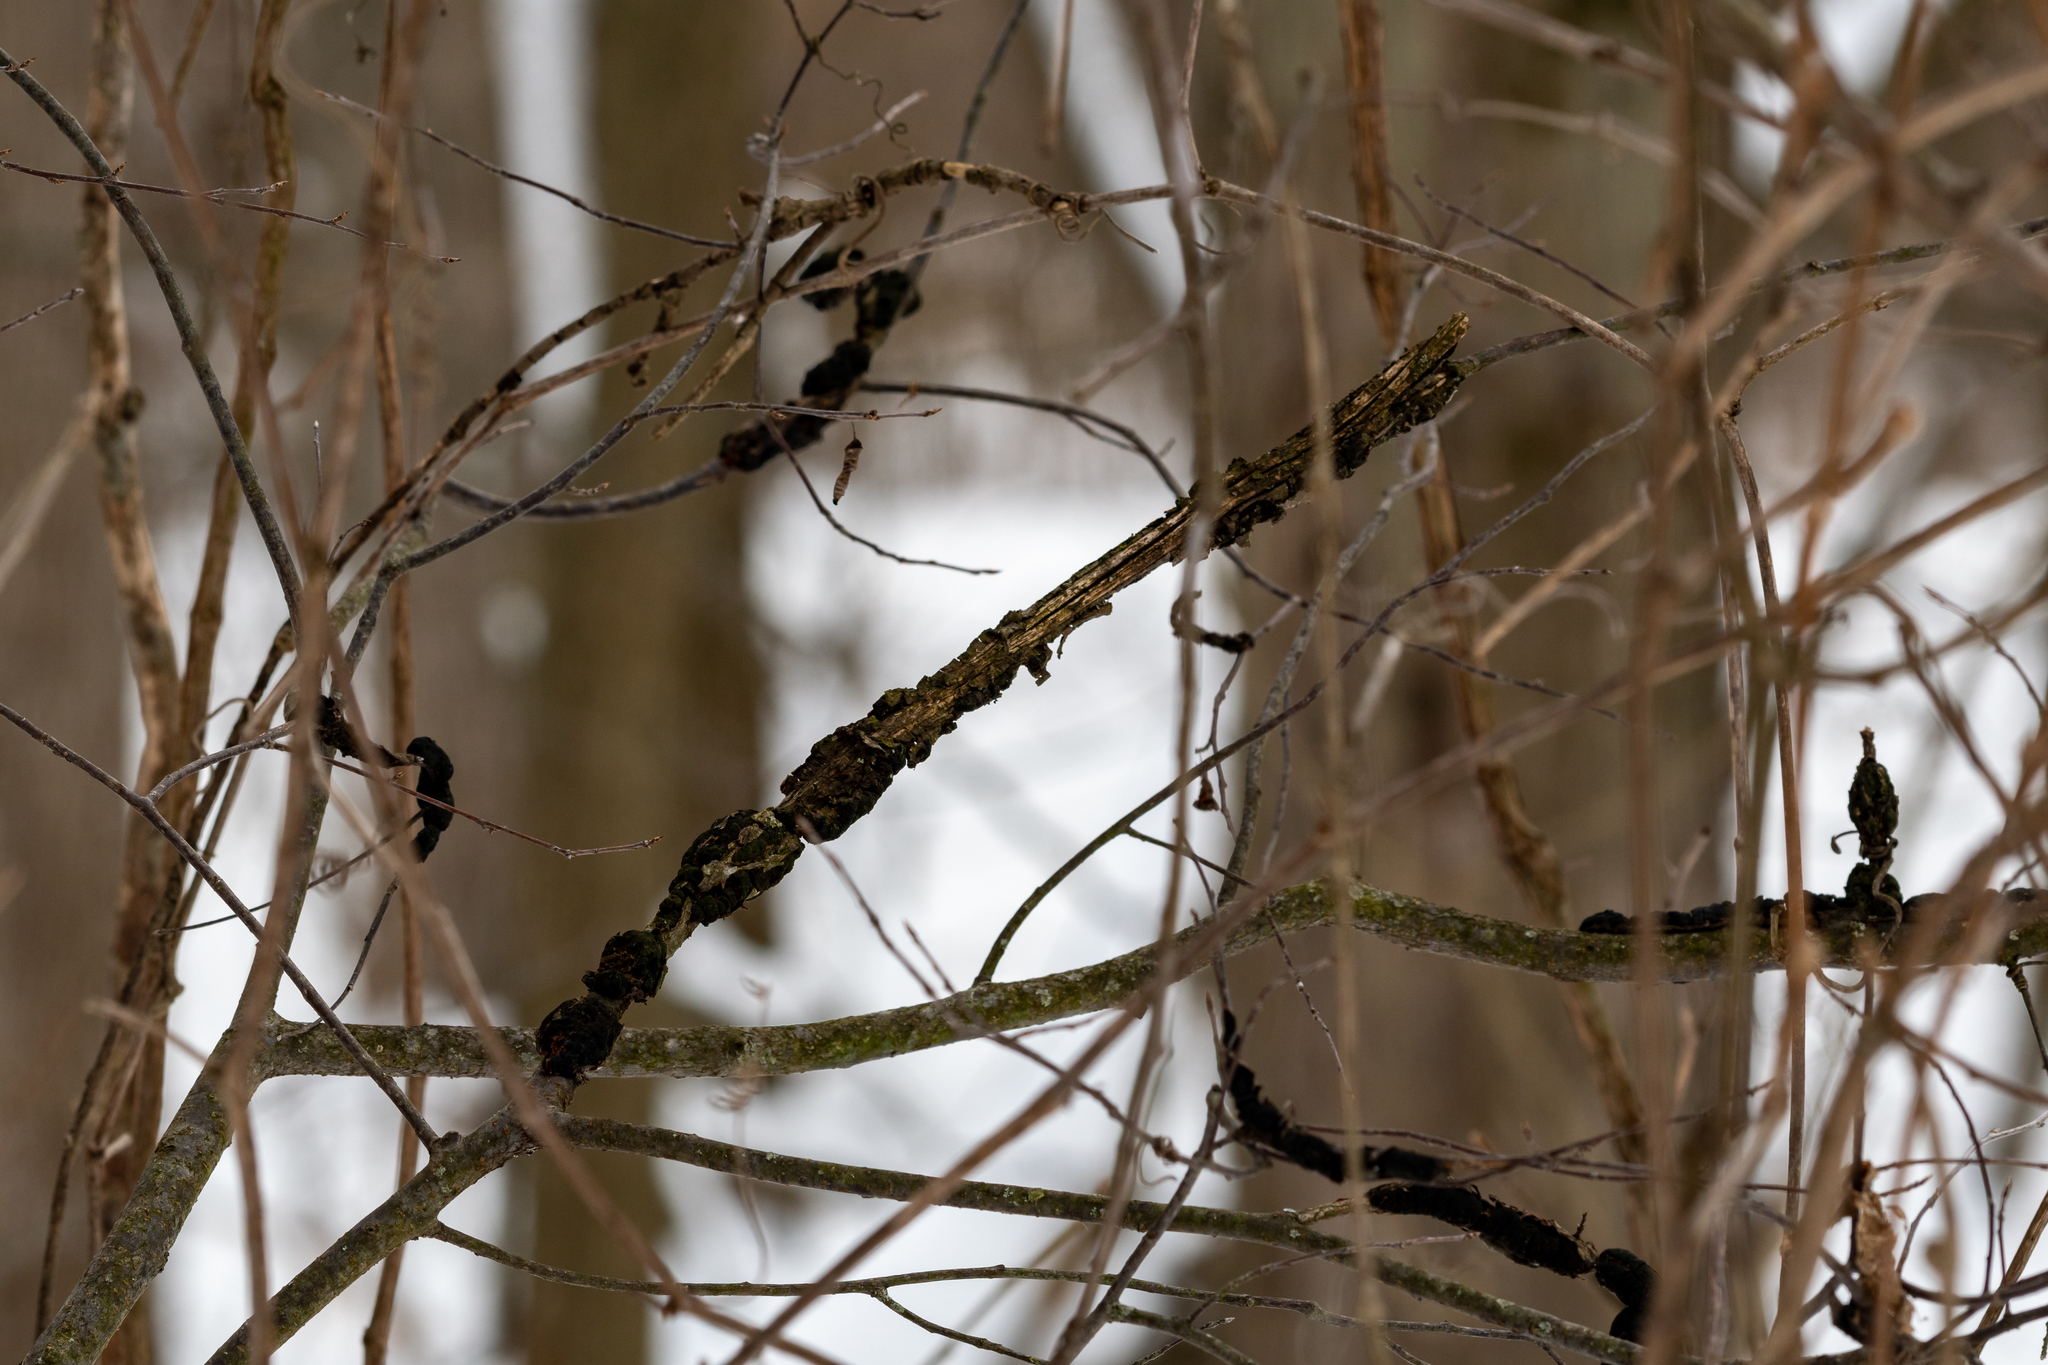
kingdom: Fungi
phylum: Ascomycota
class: Dothideomycetes
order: Venturiales
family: Venturiaceae
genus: Apiosporina
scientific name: Apiosporina morbosa
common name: Black knot
